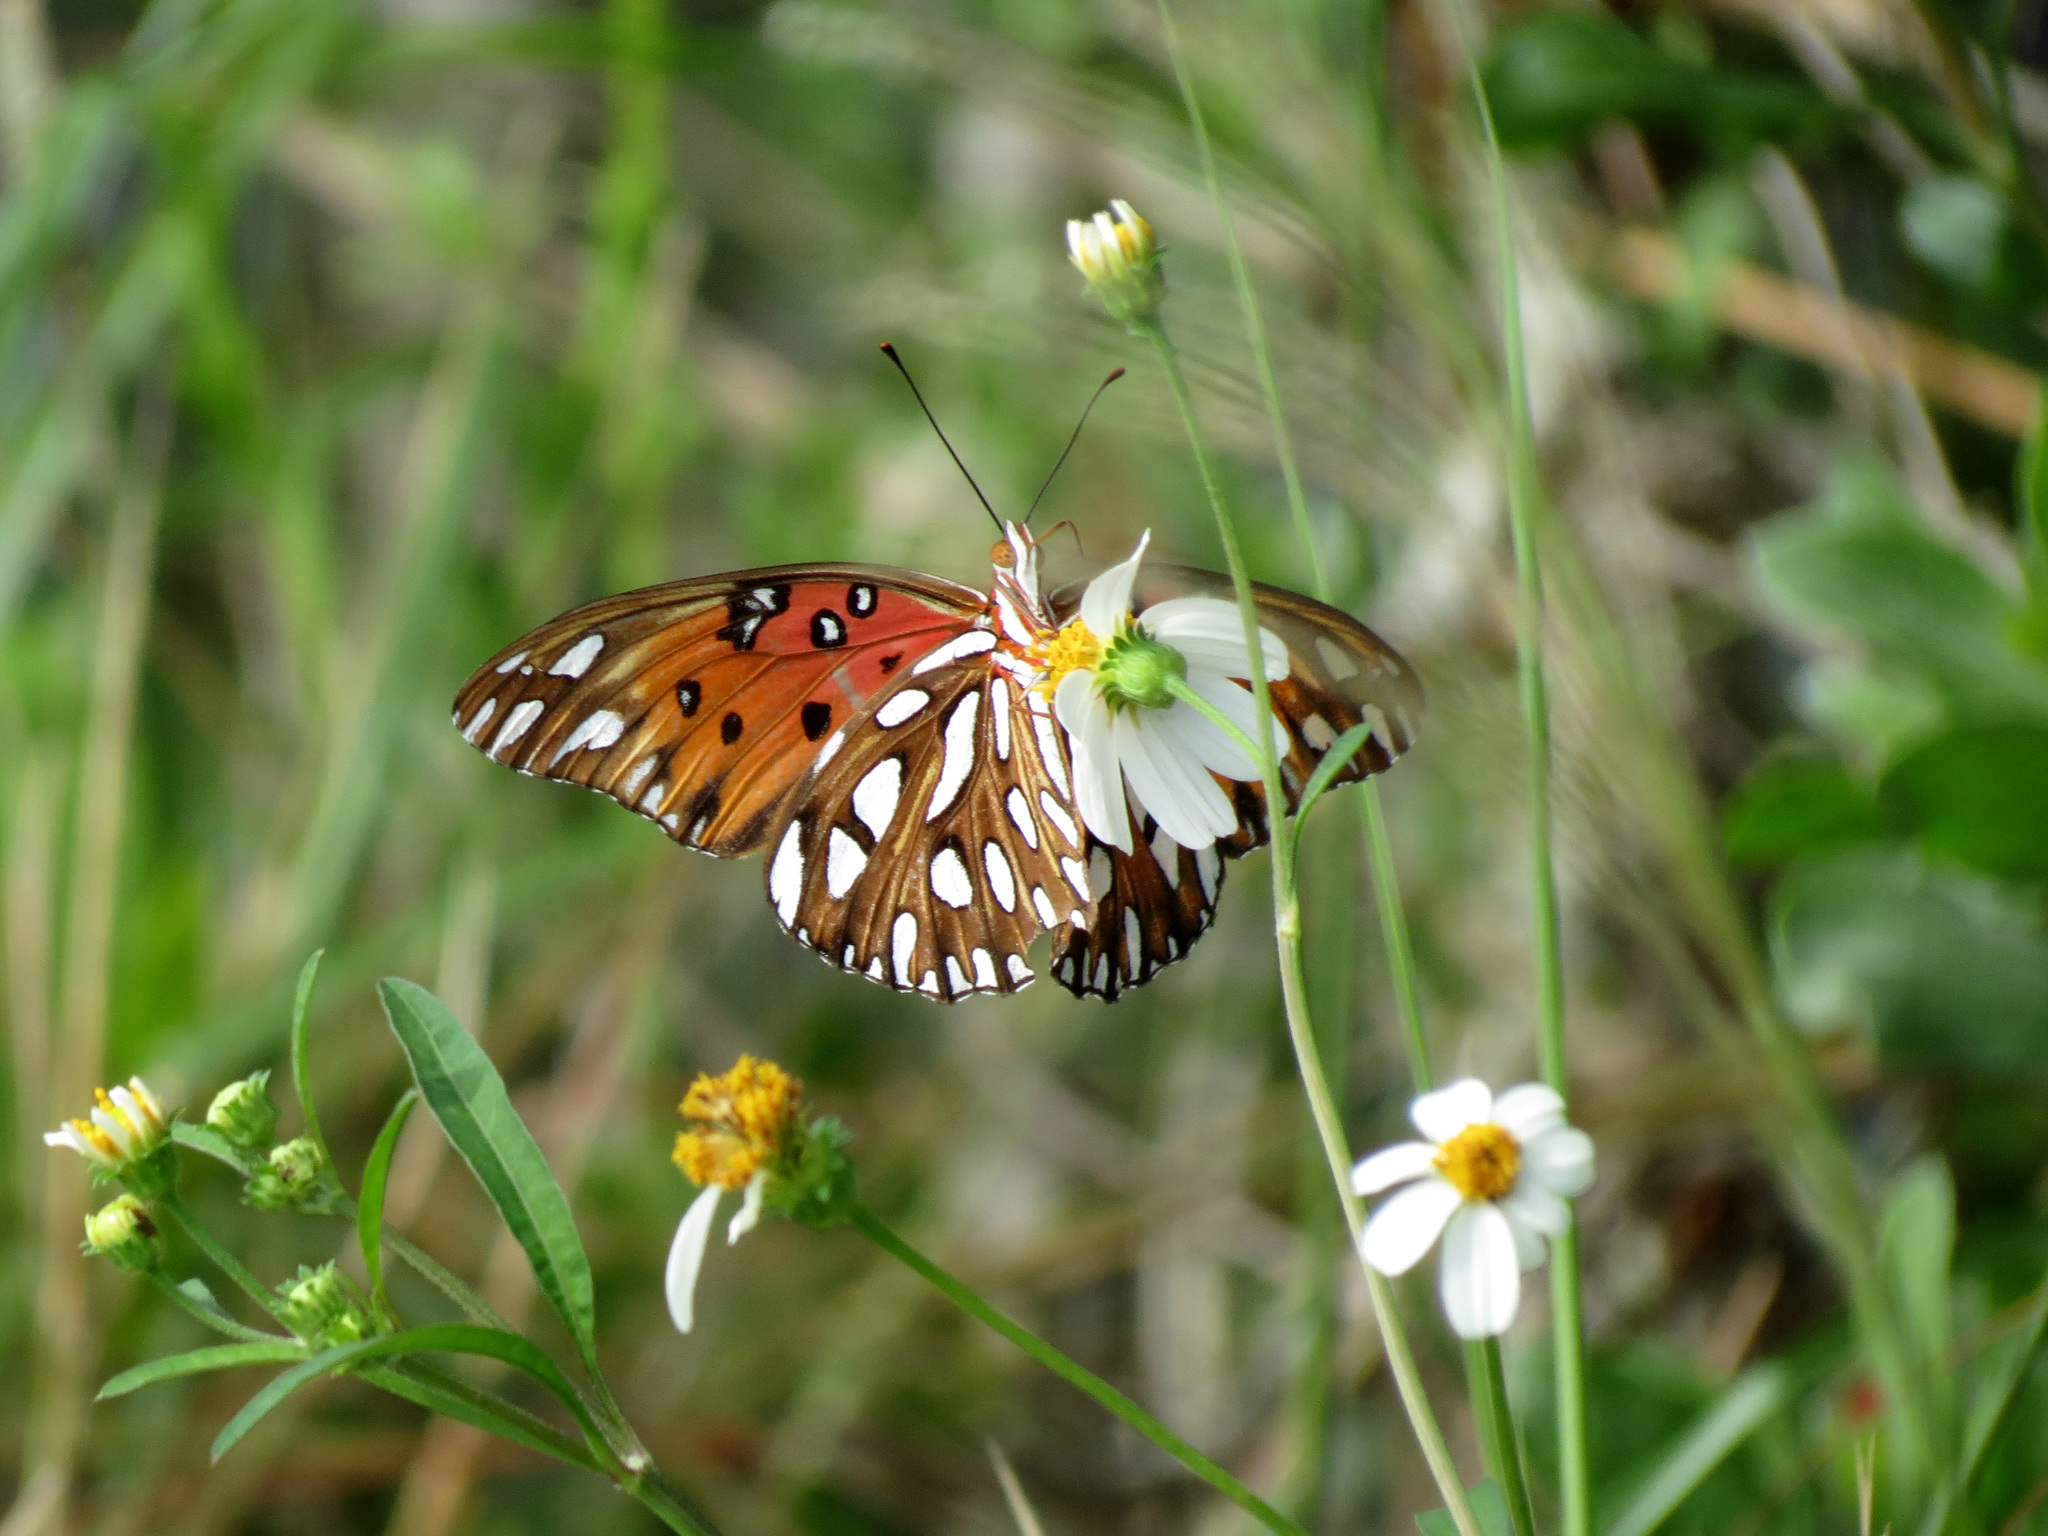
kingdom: Animalia
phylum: Arthropoda
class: Insecta
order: Lepidoptera
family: Nymphalidae
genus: Dione
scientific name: Dione vanillae
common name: Gulf fritillary
